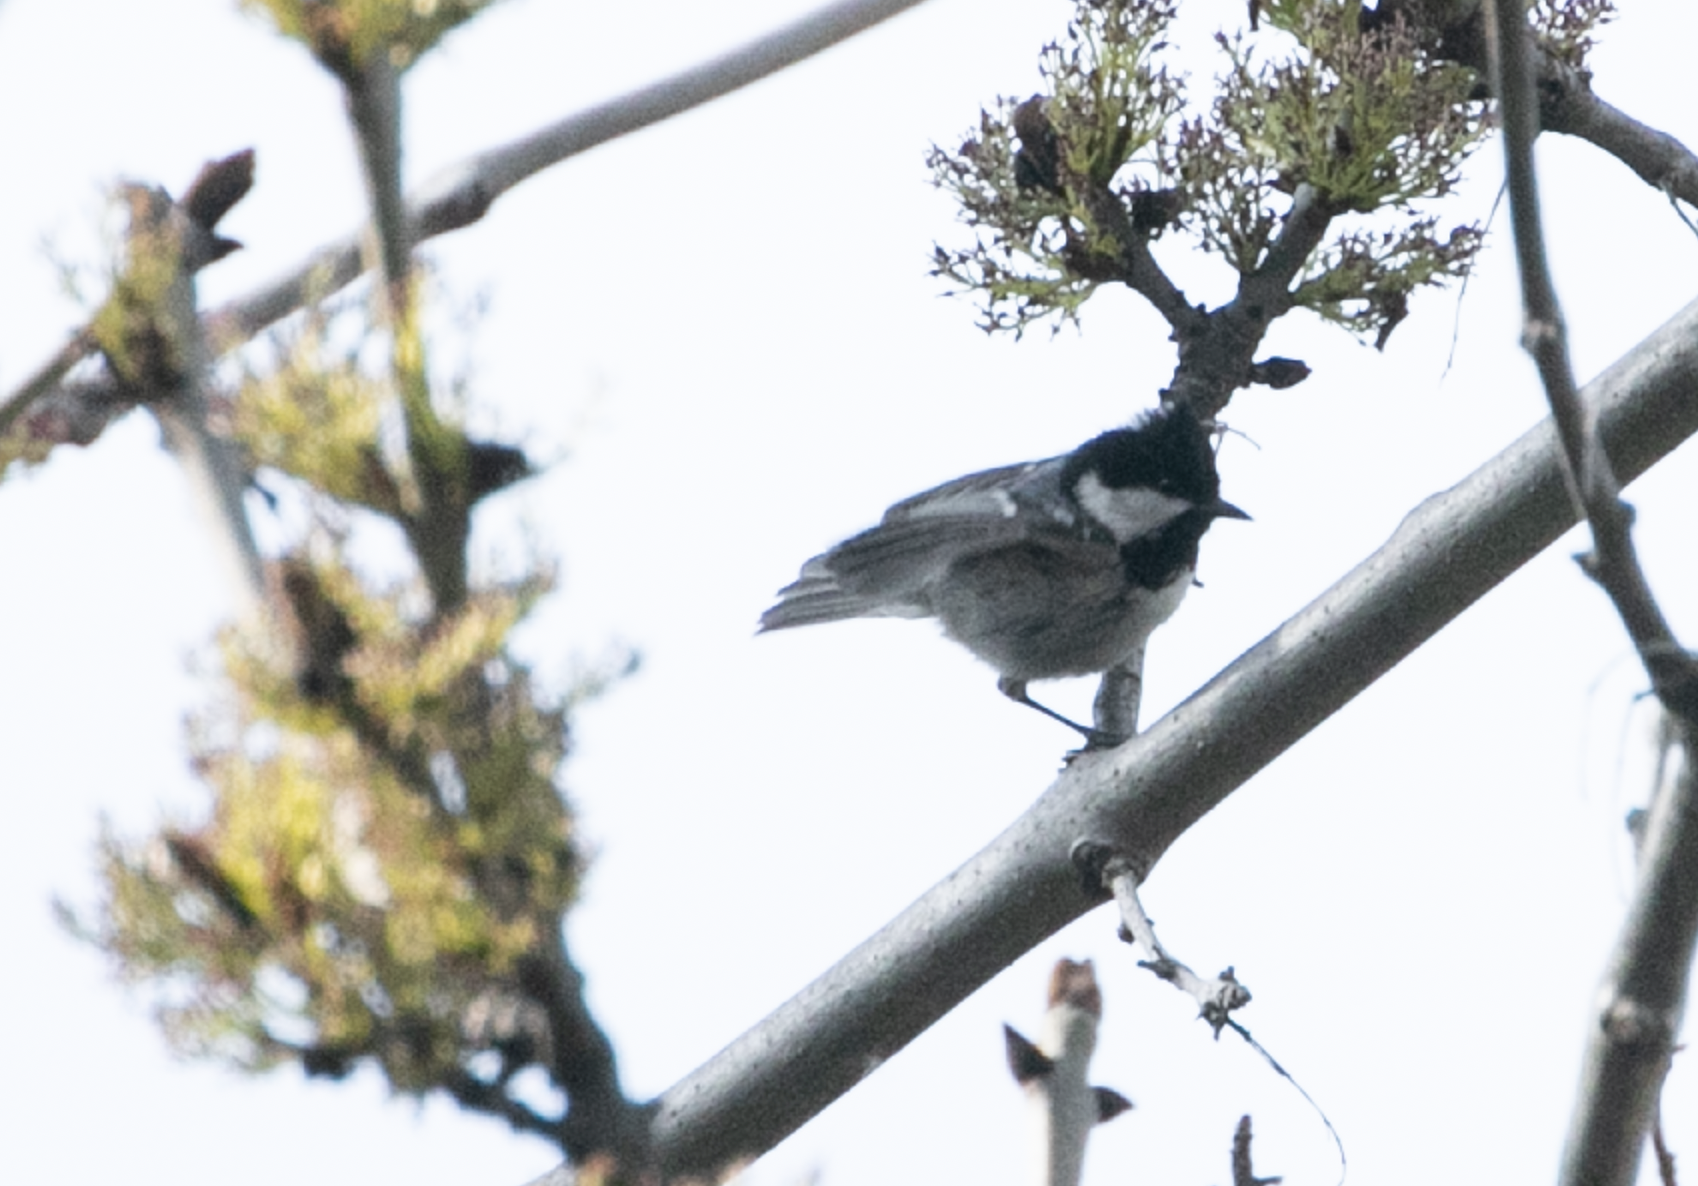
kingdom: Animalia
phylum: Chordata
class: Aves
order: Passeriformes
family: Paridae
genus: Periparus
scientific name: Periparus ater
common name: Coal tit
